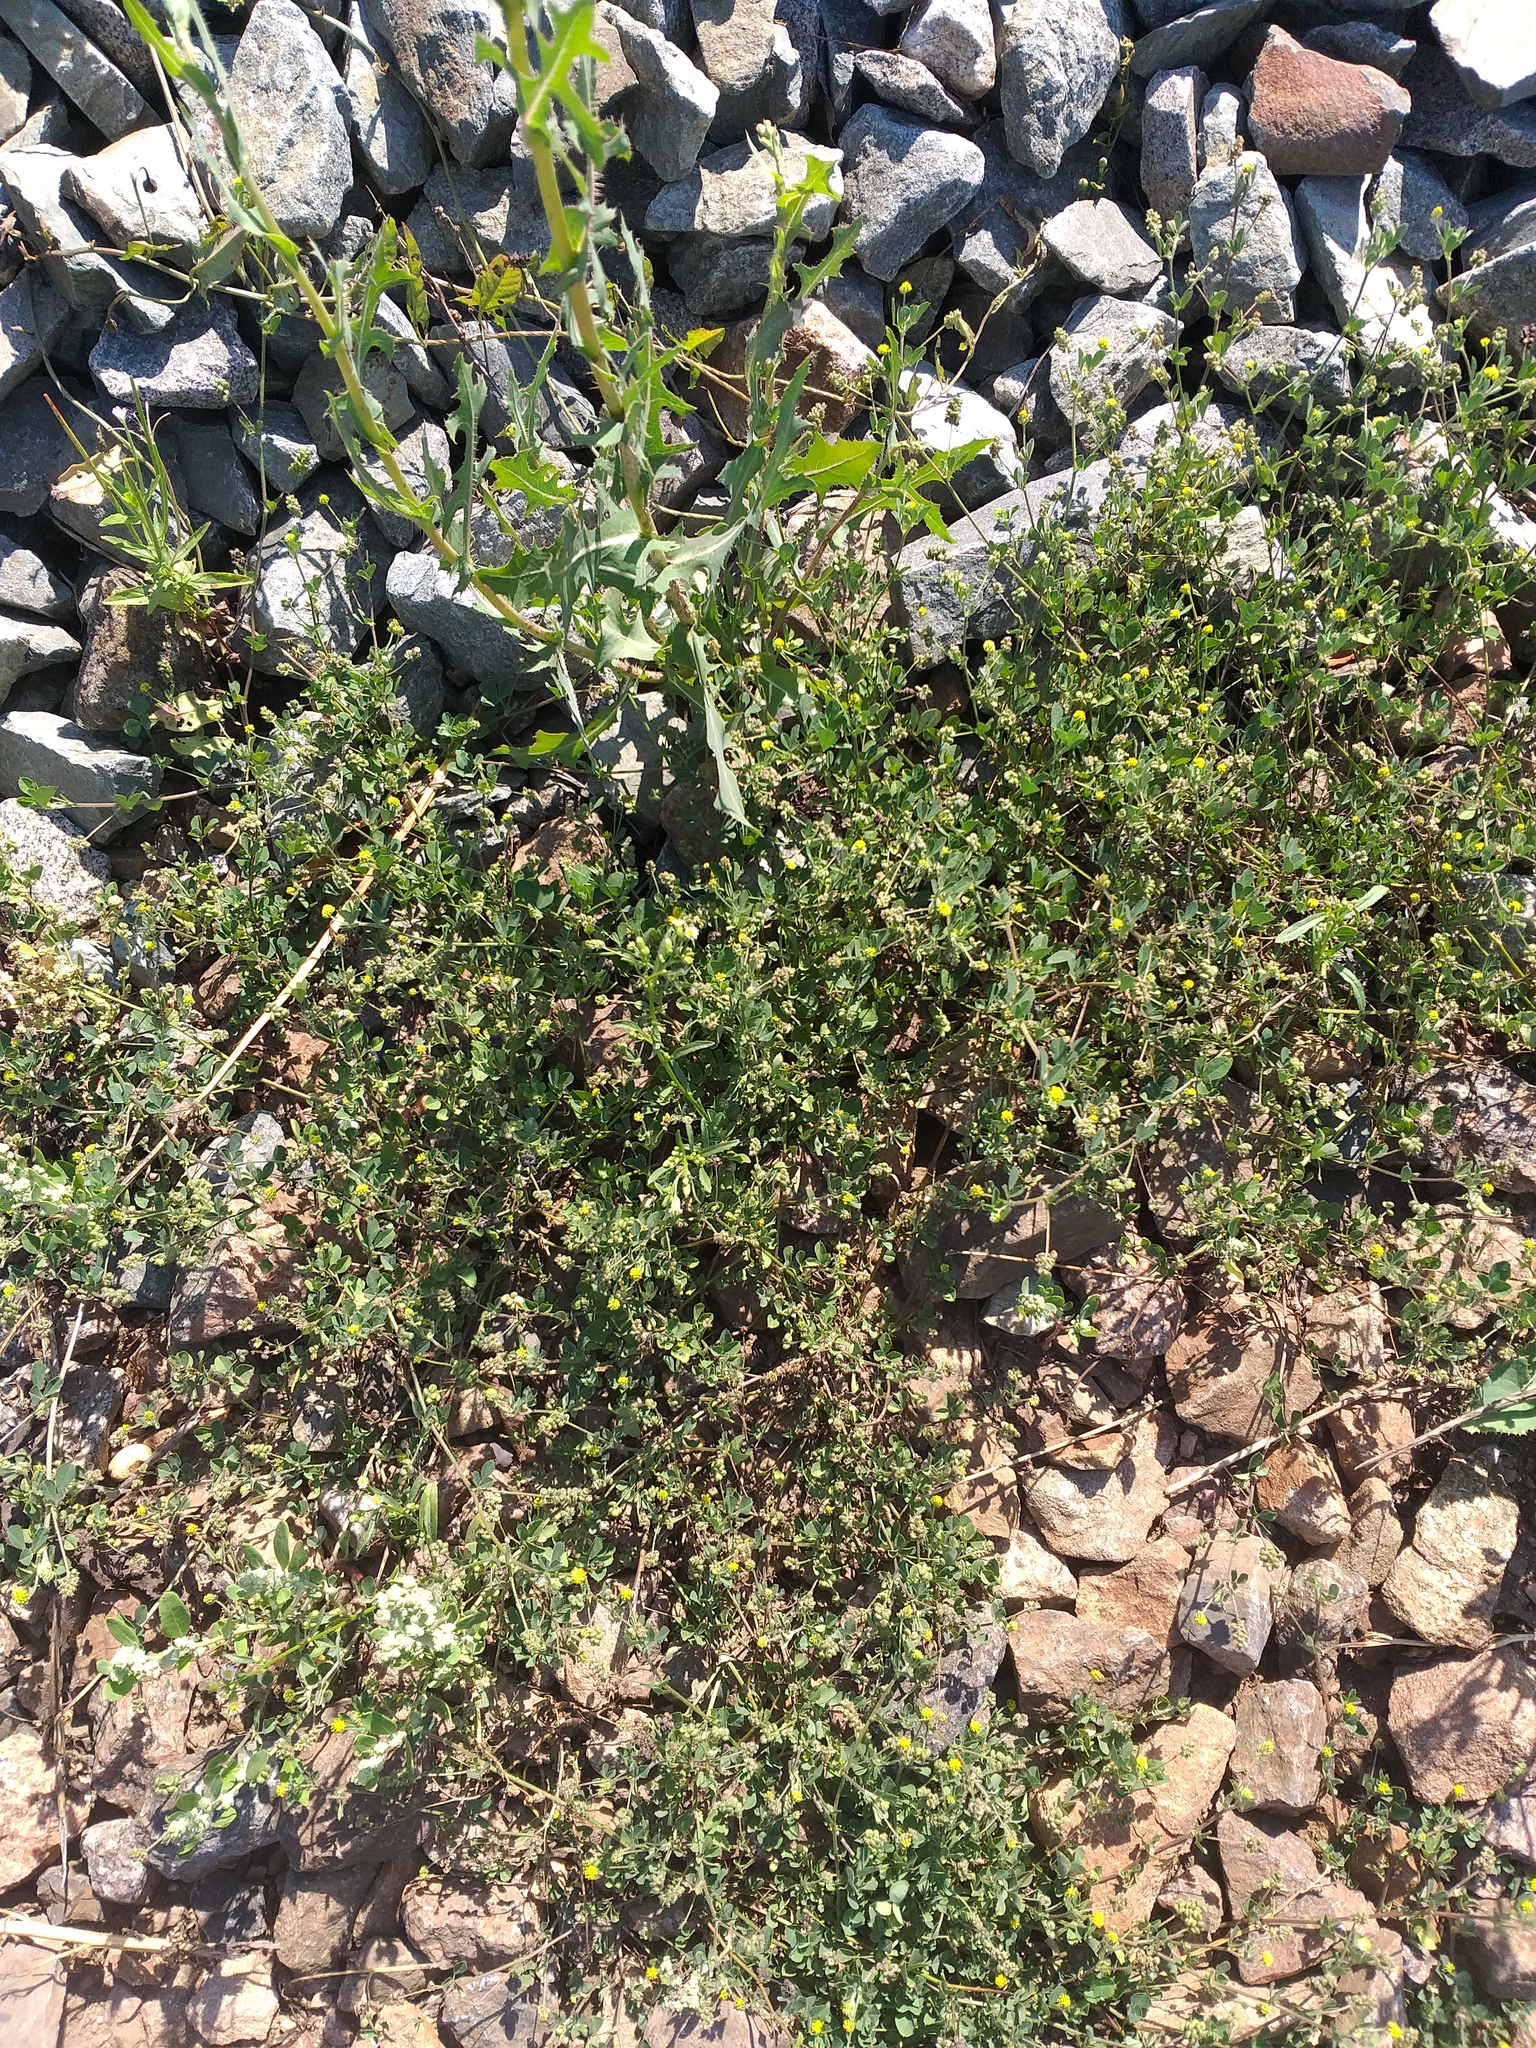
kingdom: Plantae
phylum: Tracheophyta
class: Magnoliopsida
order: Fabales
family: Fabaceae
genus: Medicago
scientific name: Medicago lupulina
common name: Black medick
